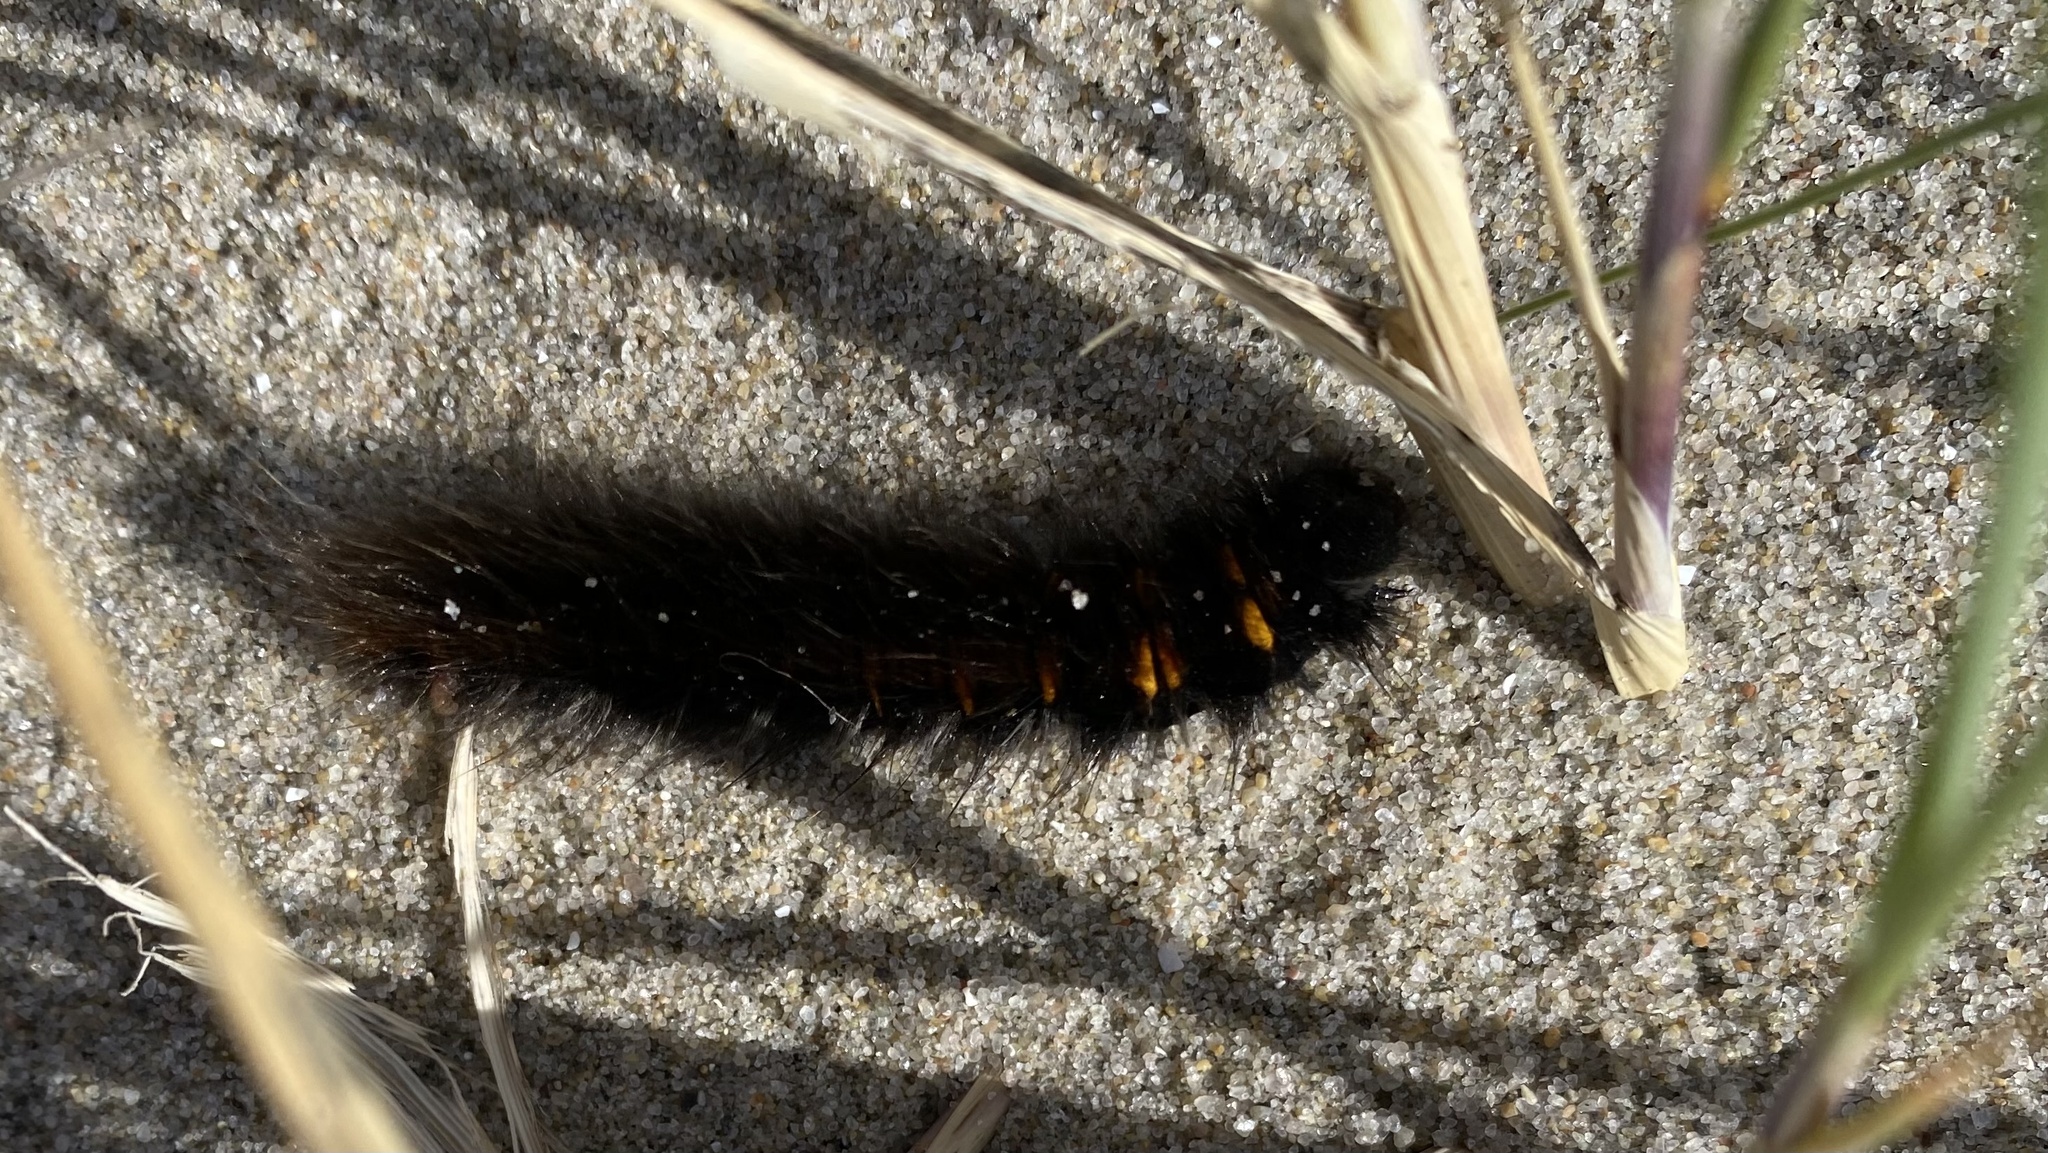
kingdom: Animalia
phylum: Arthropoda
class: Insecta
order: Lepidoptera
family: Lasiocampidae
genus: Macrothylacia
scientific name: Macrothylacia rubi
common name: Fox moth
